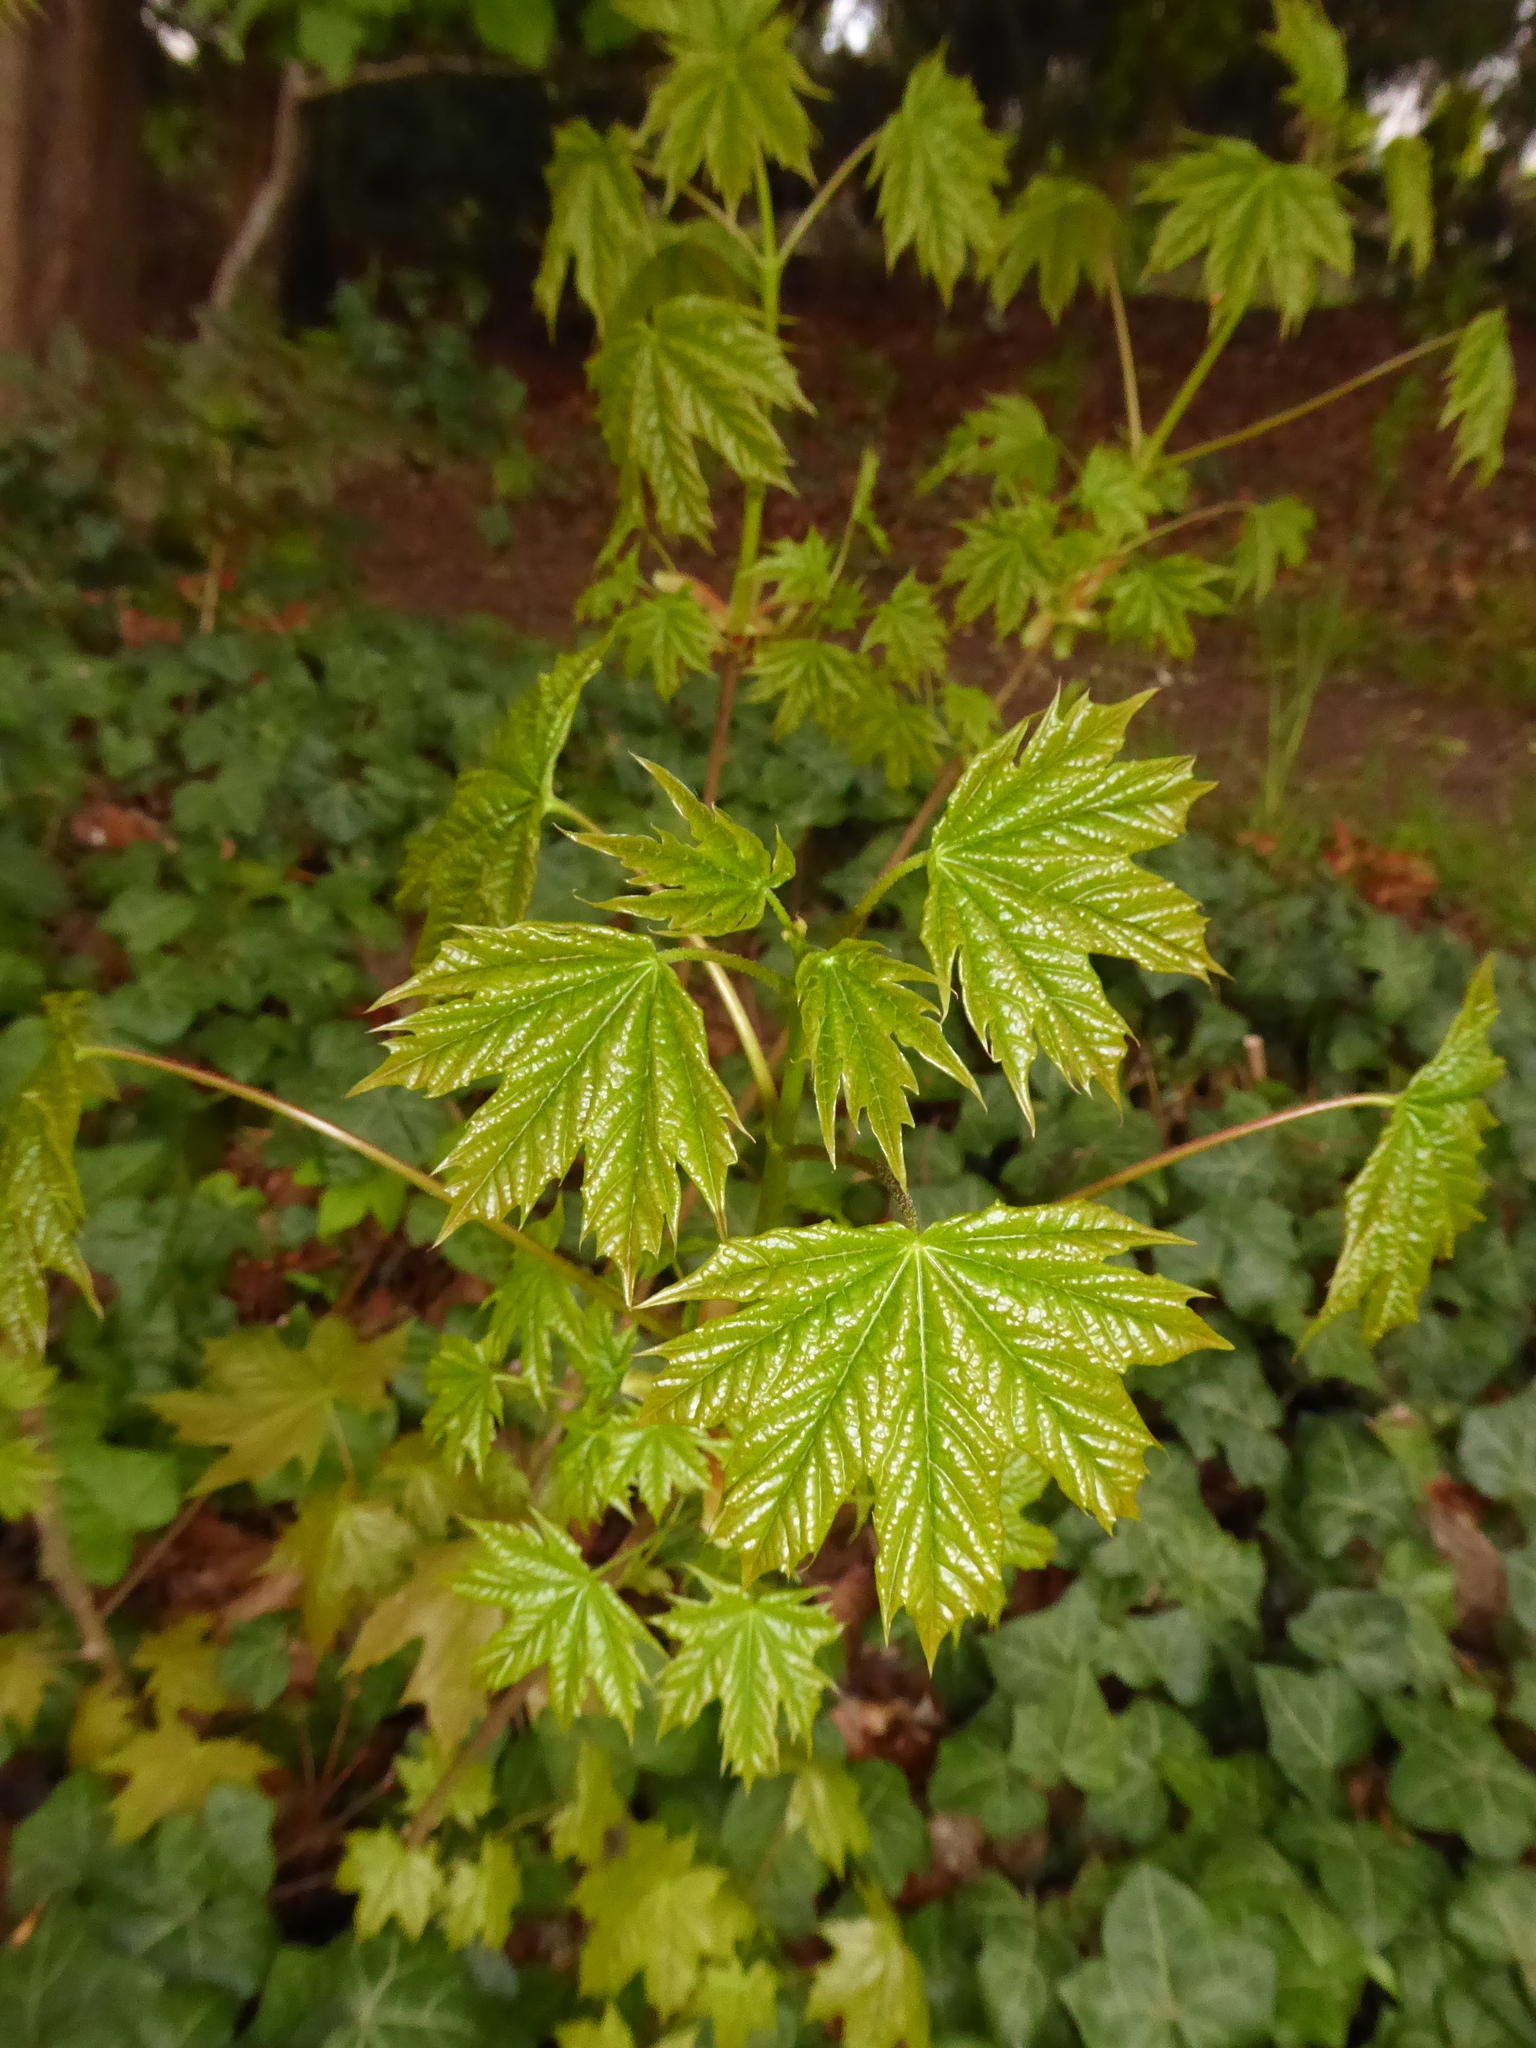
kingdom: Plantae
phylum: Tracheophyta
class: Magnoliopsida
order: Sapindales
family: Sapindaceae
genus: Acer
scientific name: Acer platanoides
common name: Norway maple
